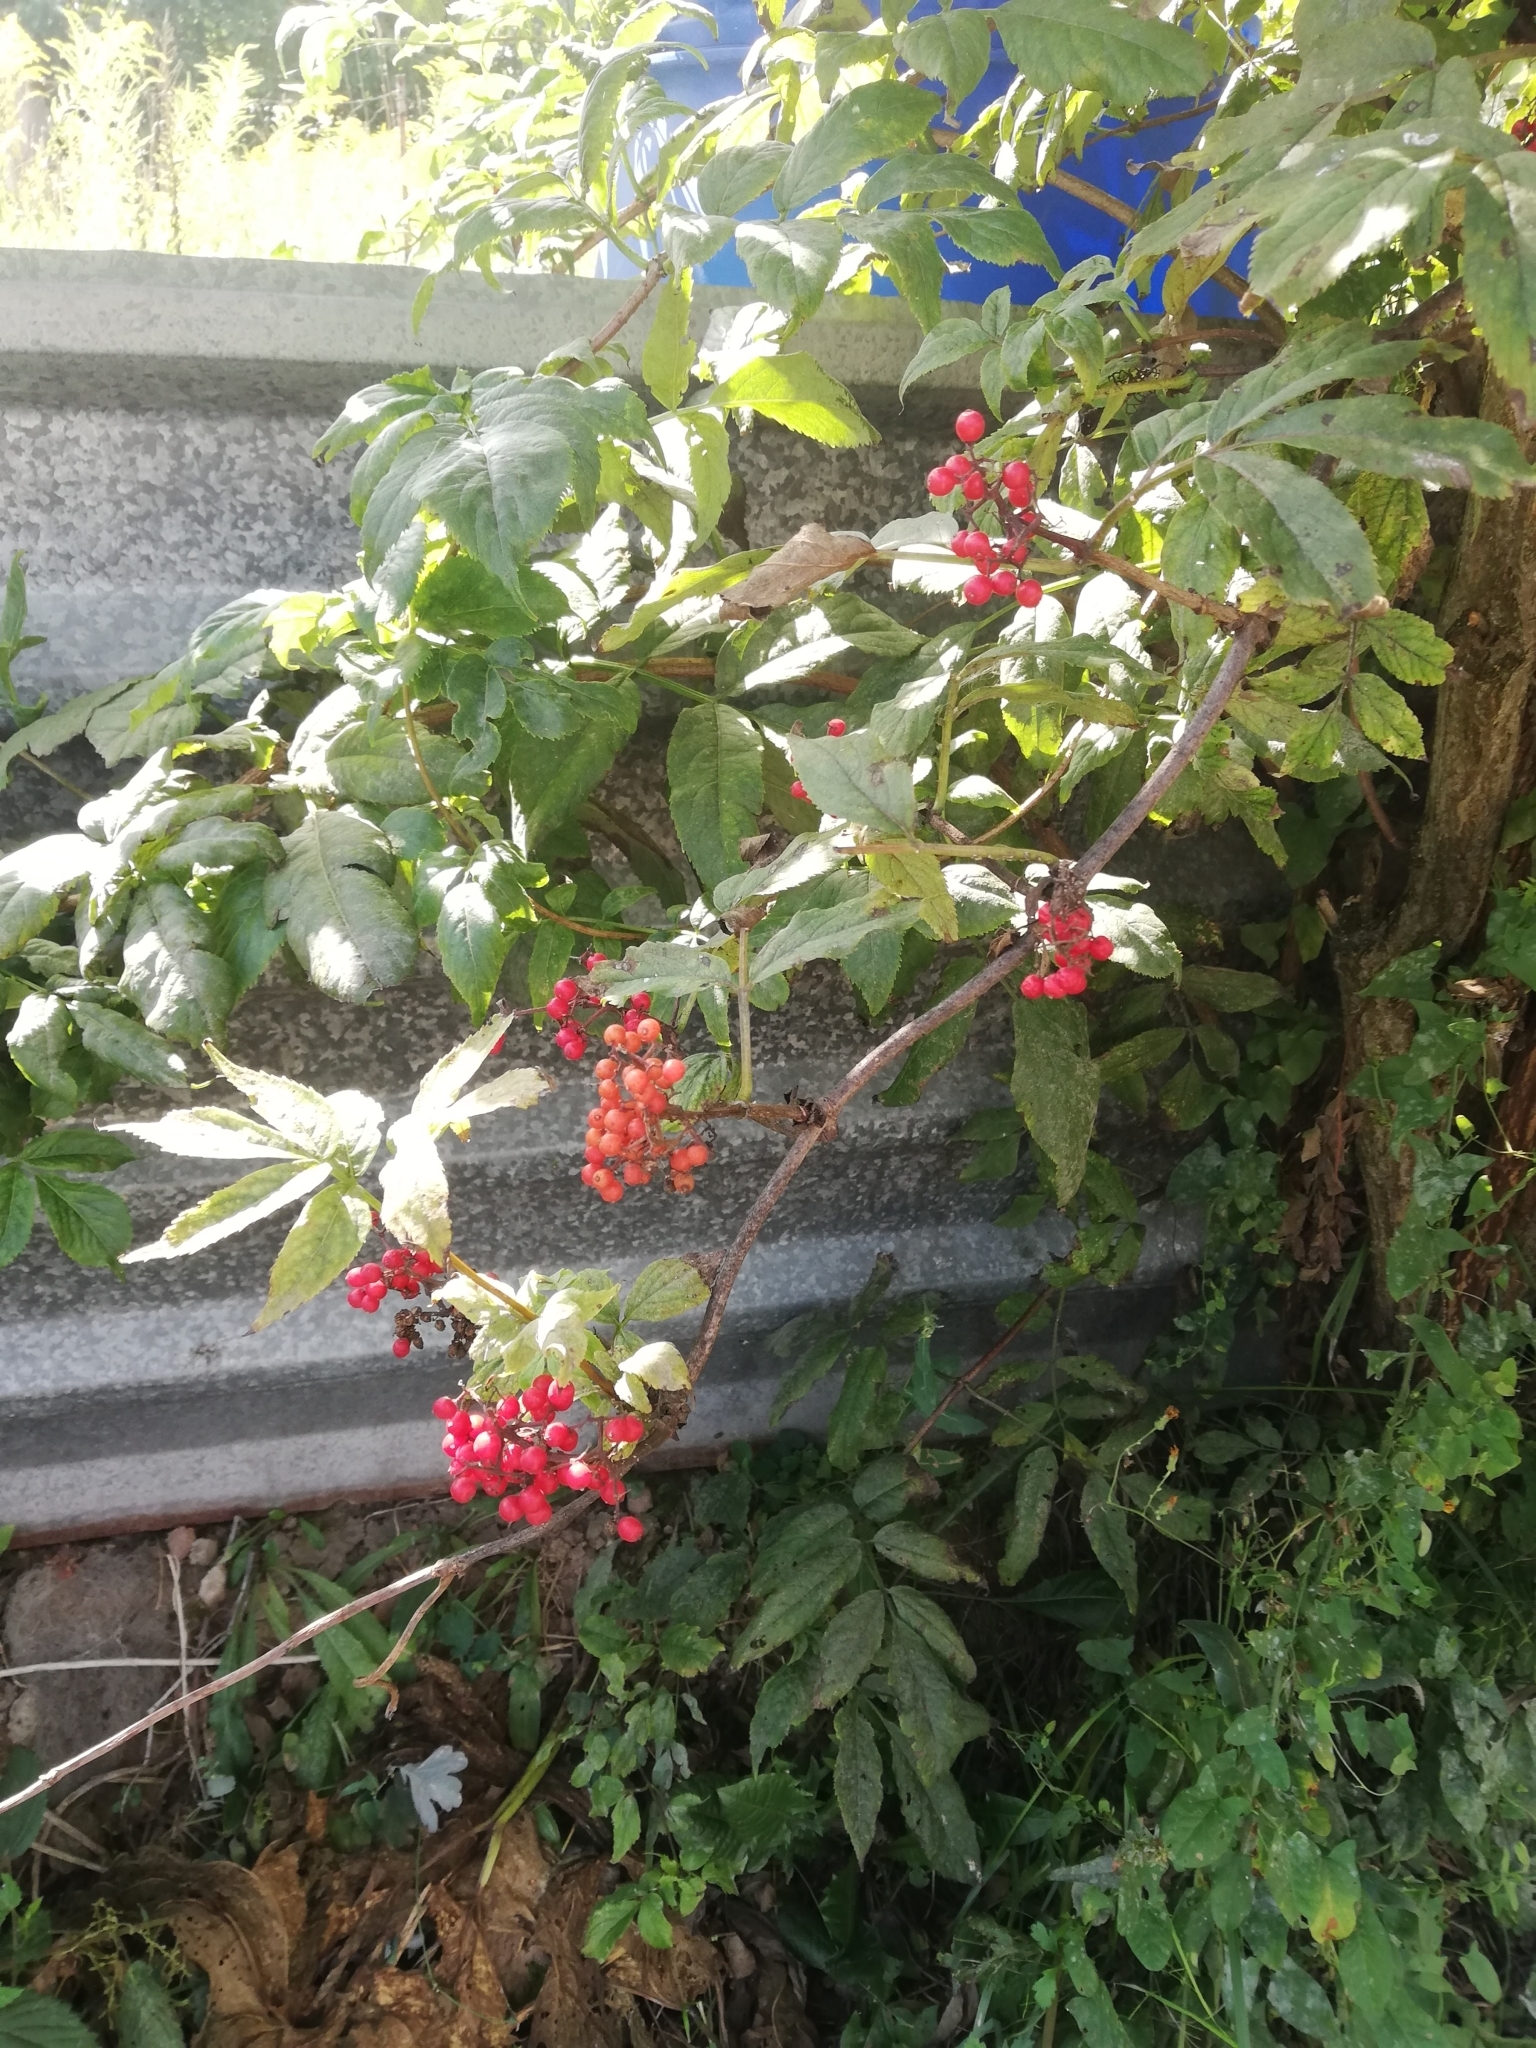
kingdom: Plantae
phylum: Tracheophyta
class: Magnoliopsida
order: Dipsacales
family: Viburnaceae
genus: Sambucus
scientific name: Sambucus racemosa
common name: Red-berried elder
